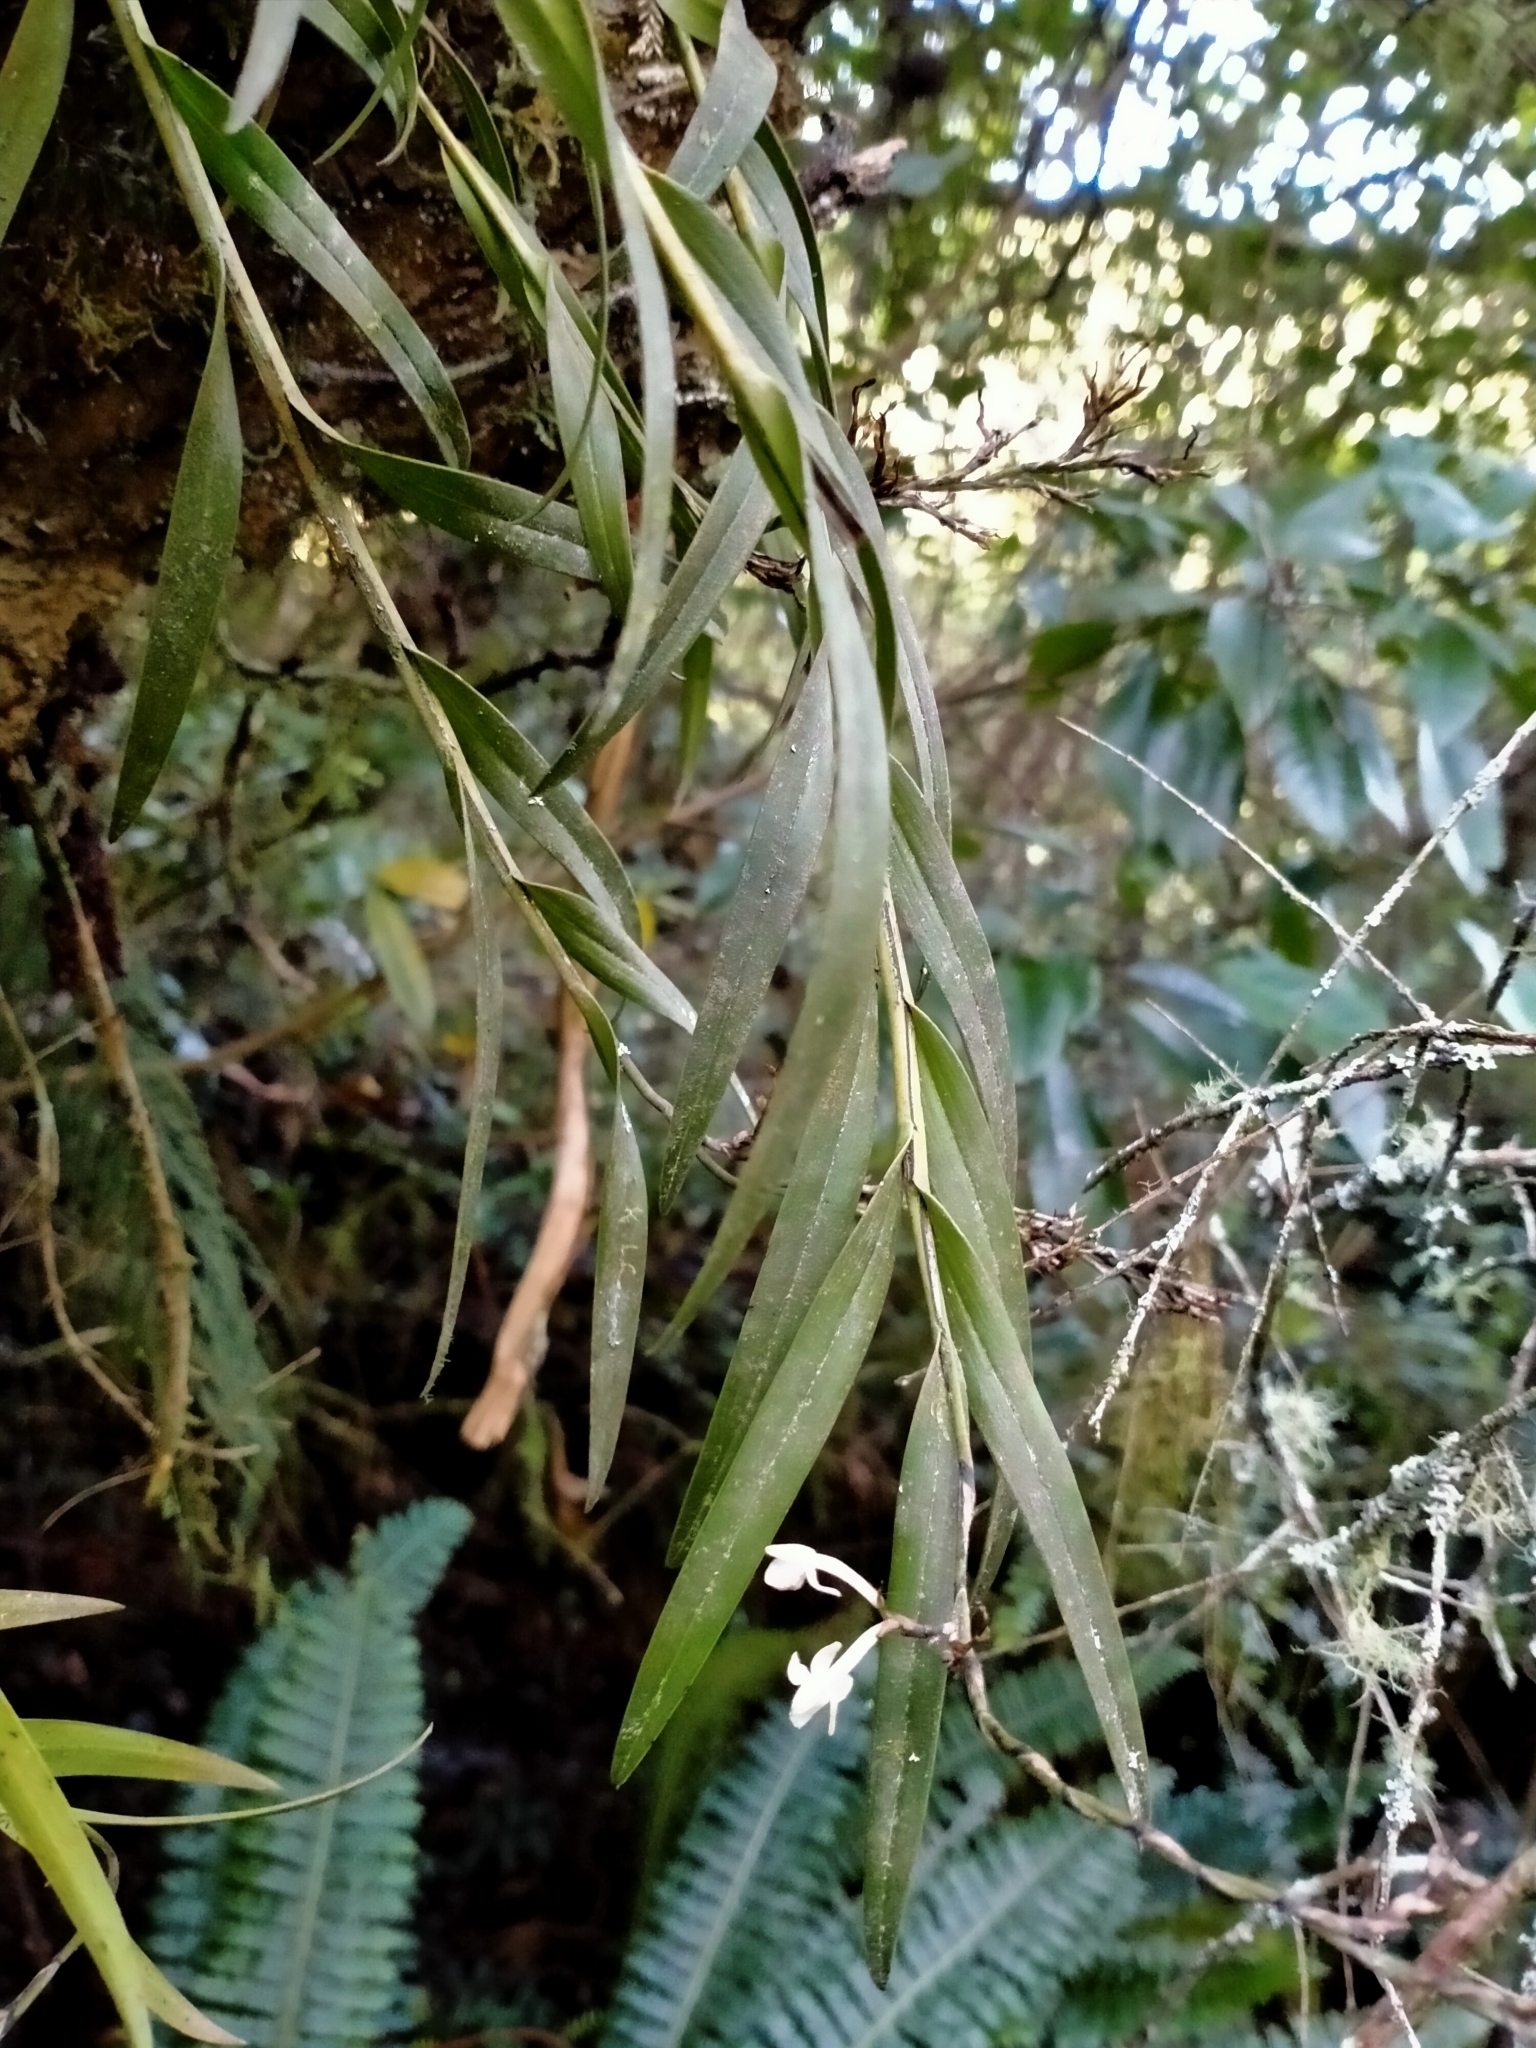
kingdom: Plantae
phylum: Tracheophyta
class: Liliopsida
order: Asparagales
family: Orchidaceae
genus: Earina
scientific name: Earina autumnalis
